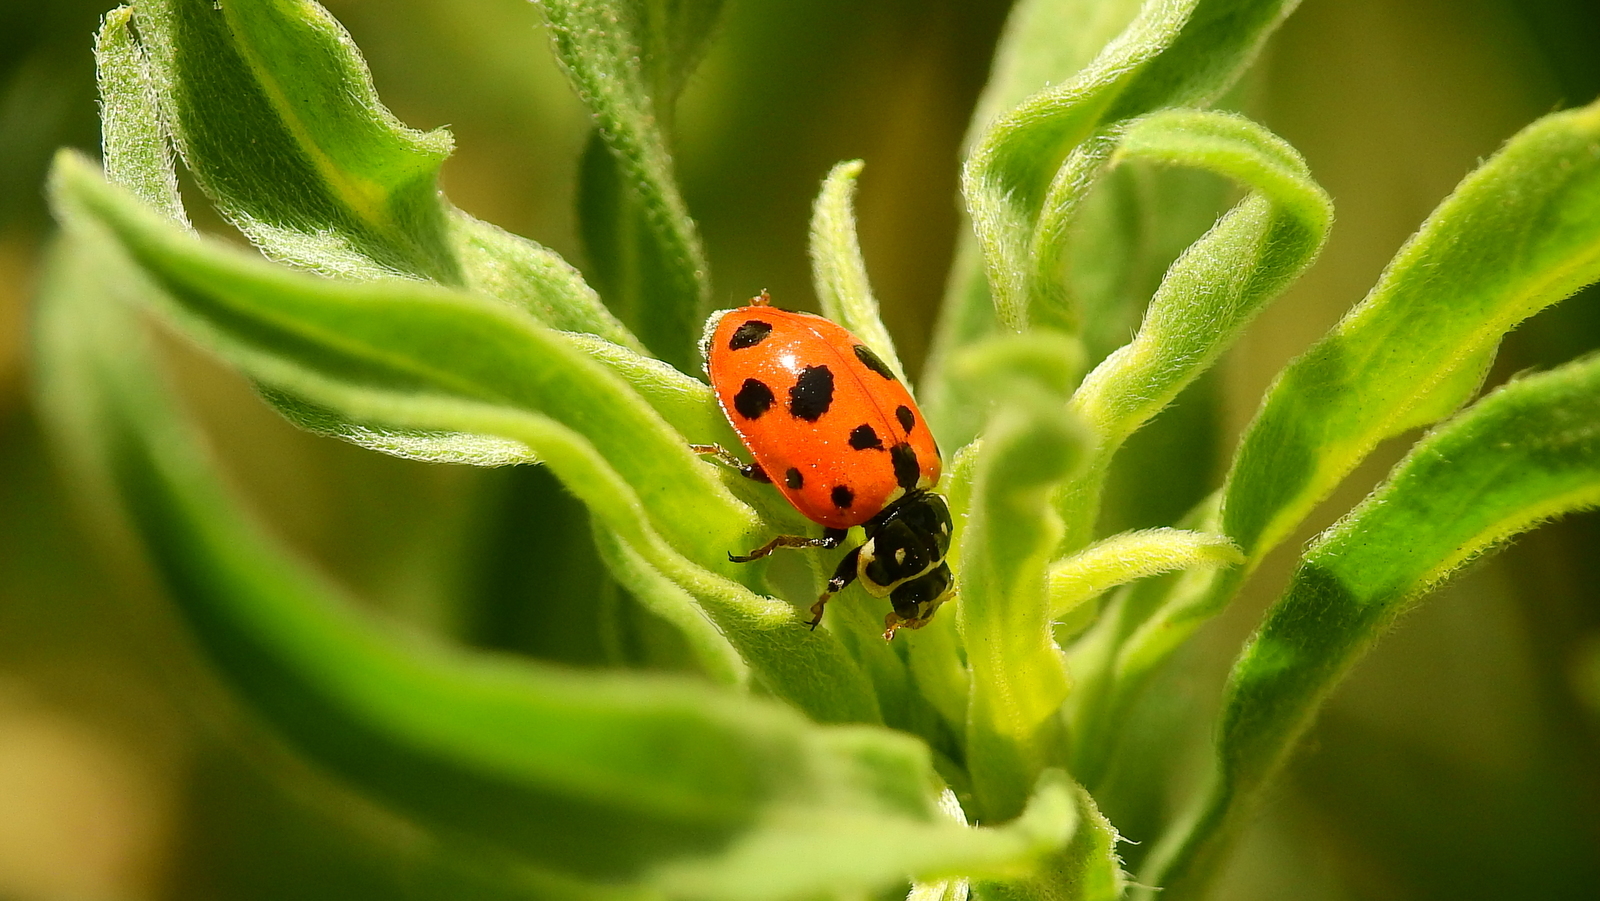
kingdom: Animalia
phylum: Arthropoda
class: Insecta
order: Coleoptera
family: Coccinellidae
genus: Hippodamia
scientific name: Hippodamia variegata
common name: Ladybird beetle
